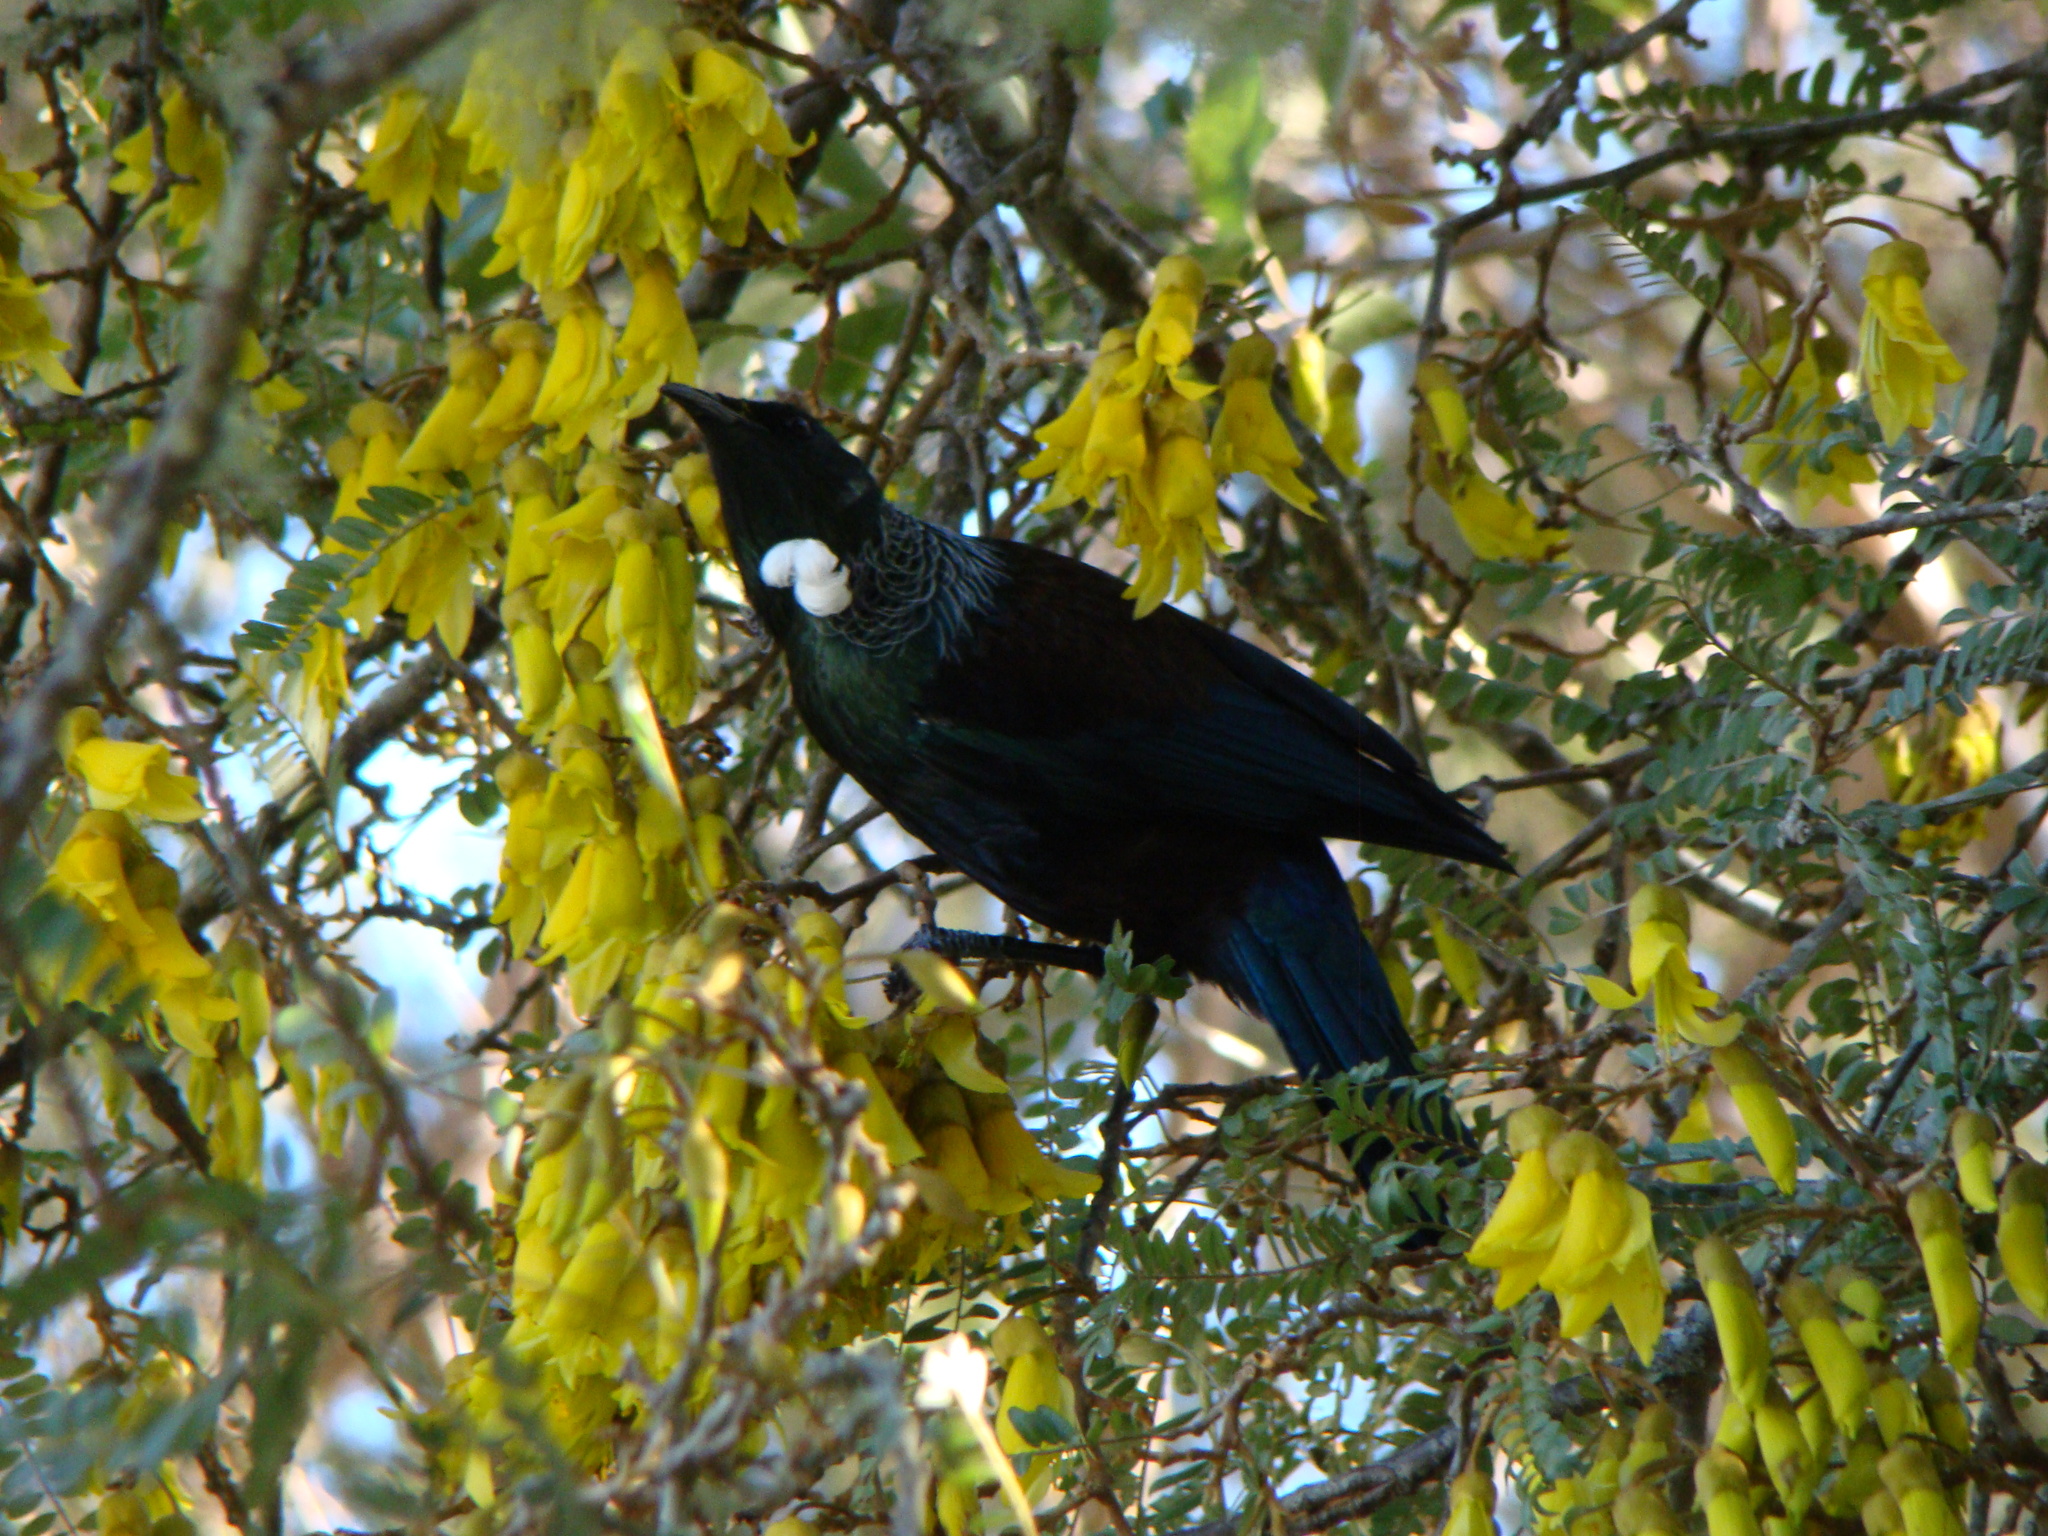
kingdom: Animalia
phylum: Chordata
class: Aves
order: Passeriformes
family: Meliphagidae
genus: Prosthemadera
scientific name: Prosthemadera novaeseelandiae
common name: Tui
